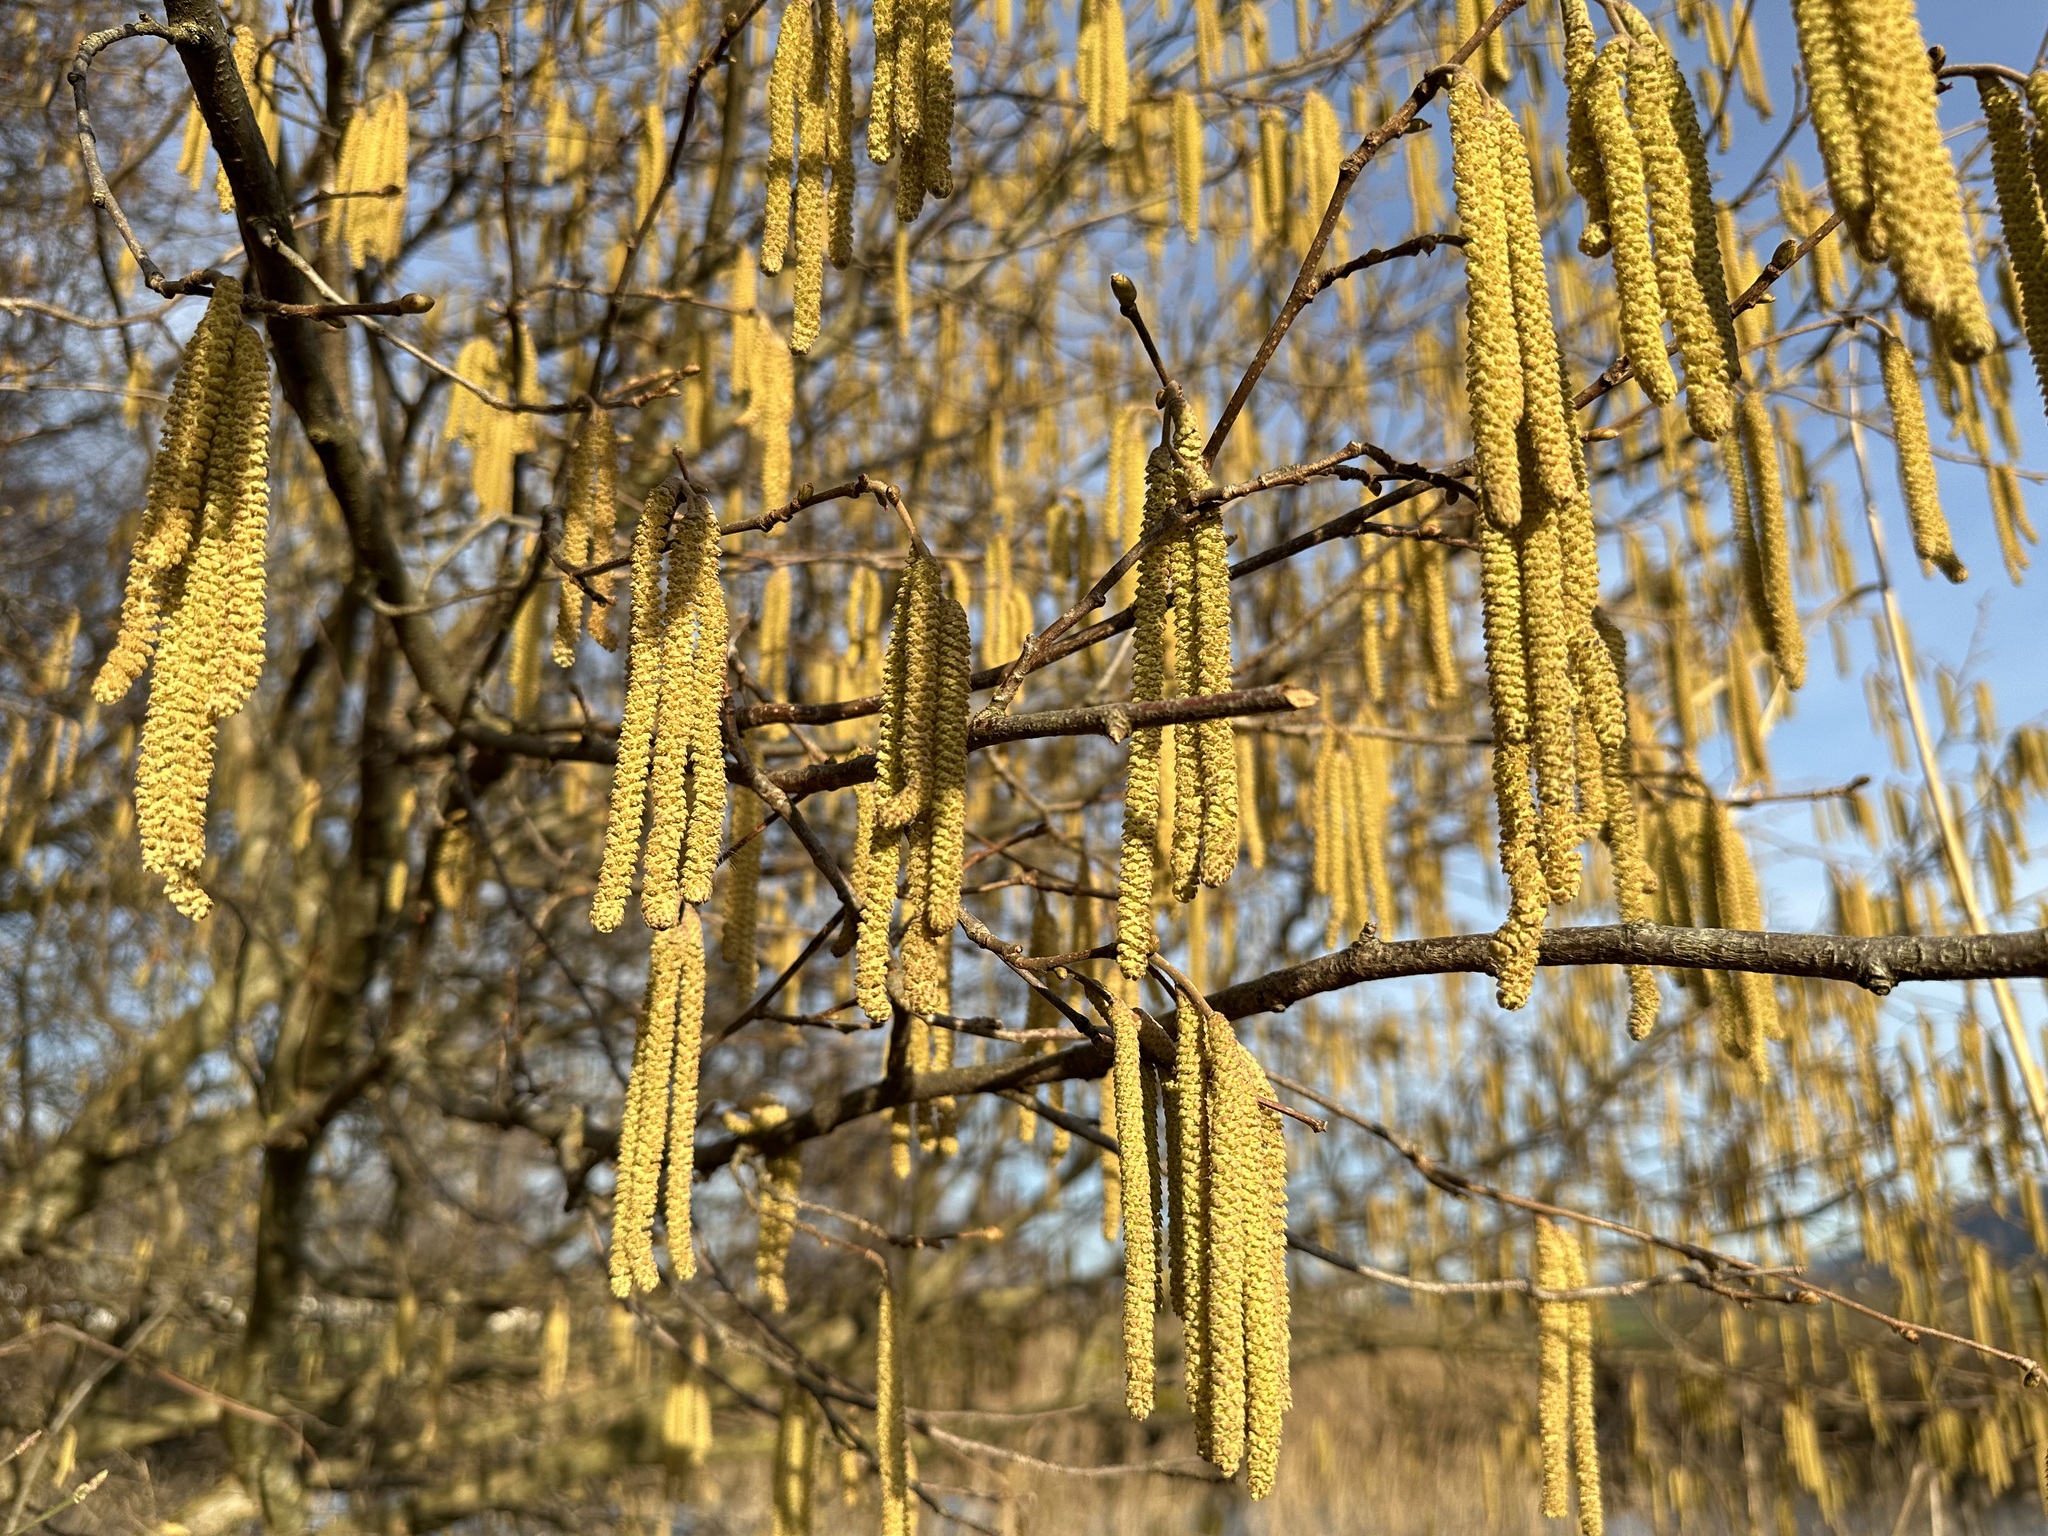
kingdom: Plantae
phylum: Tracheophyta
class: Magnoliopsida
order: Fagales
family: Betulaceae
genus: Corylus
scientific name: Corylus avellana
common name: European hazel
